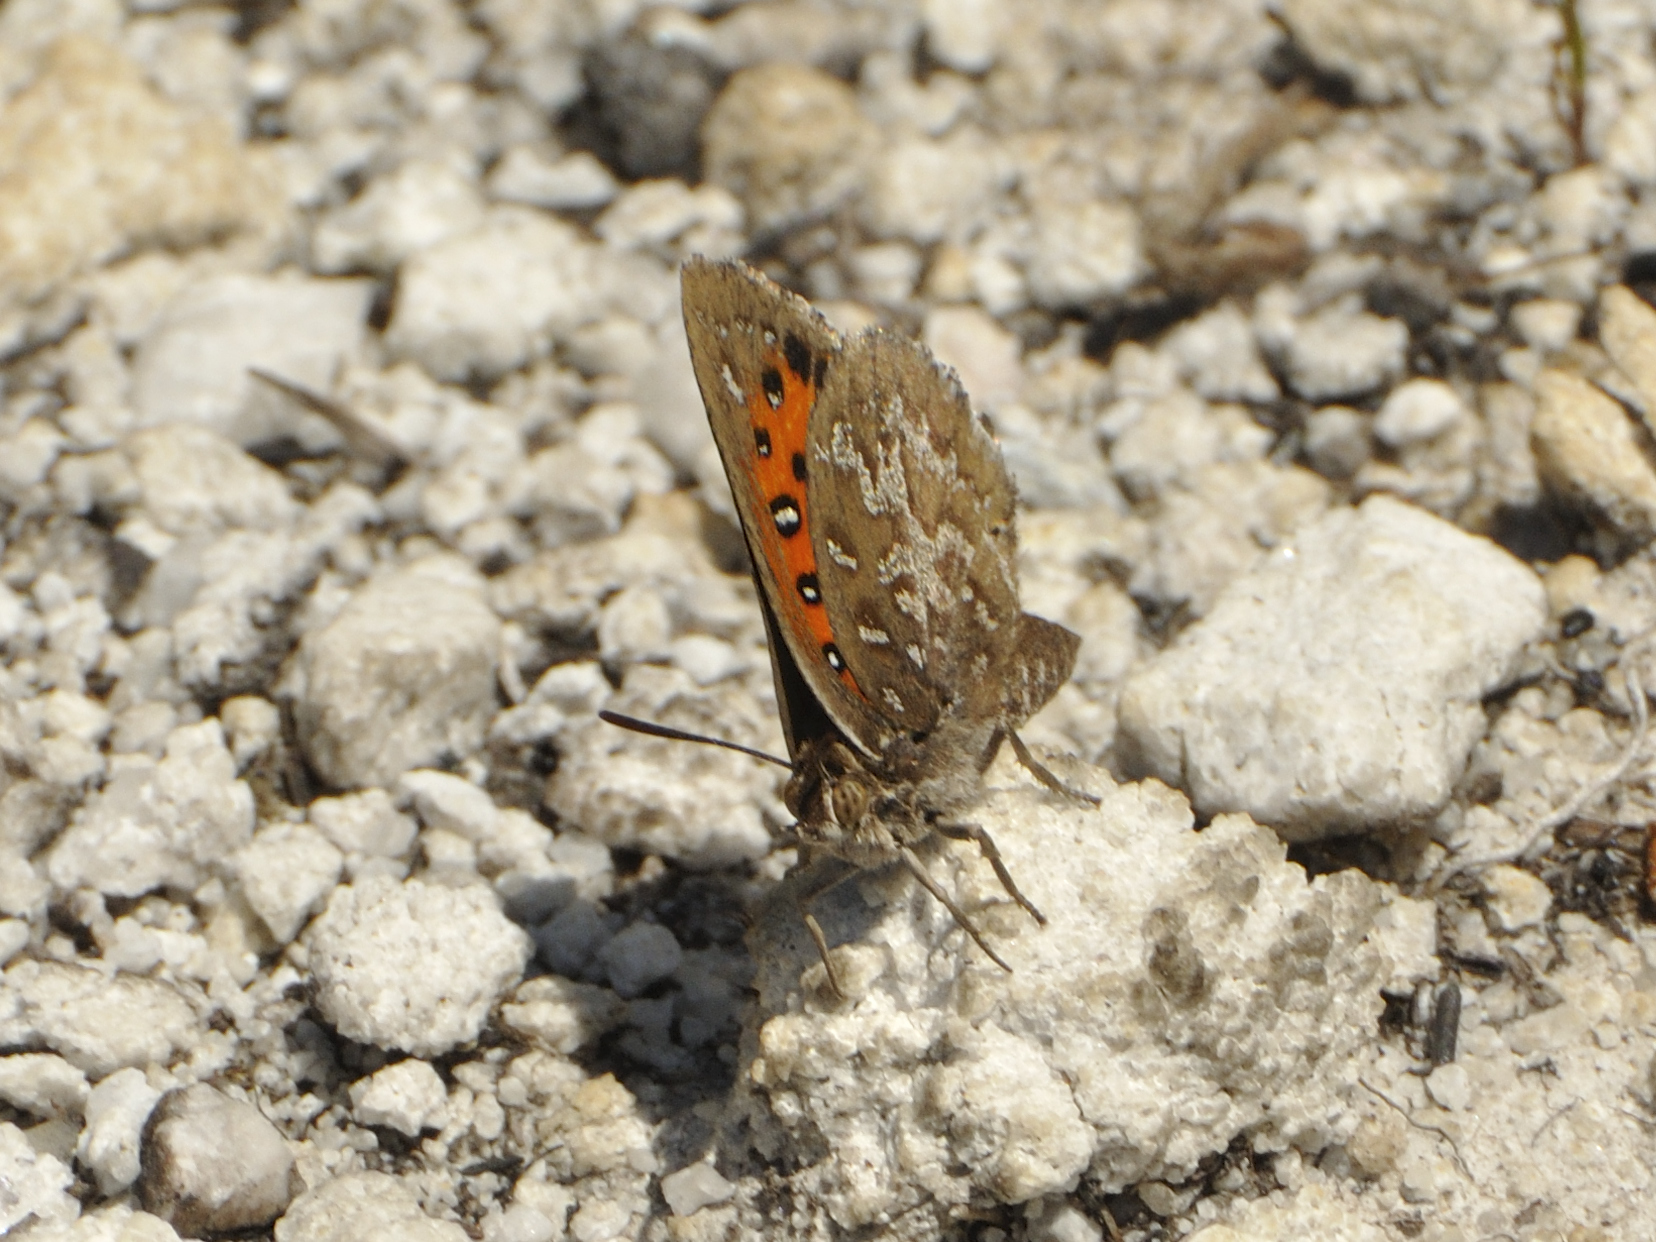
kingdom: Animalia
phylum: Arthropoda
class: Insecta
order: Lepidoptera
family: Lycaenidae
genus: Aloeides
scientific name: Aloeides pallida
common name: Giant copper
